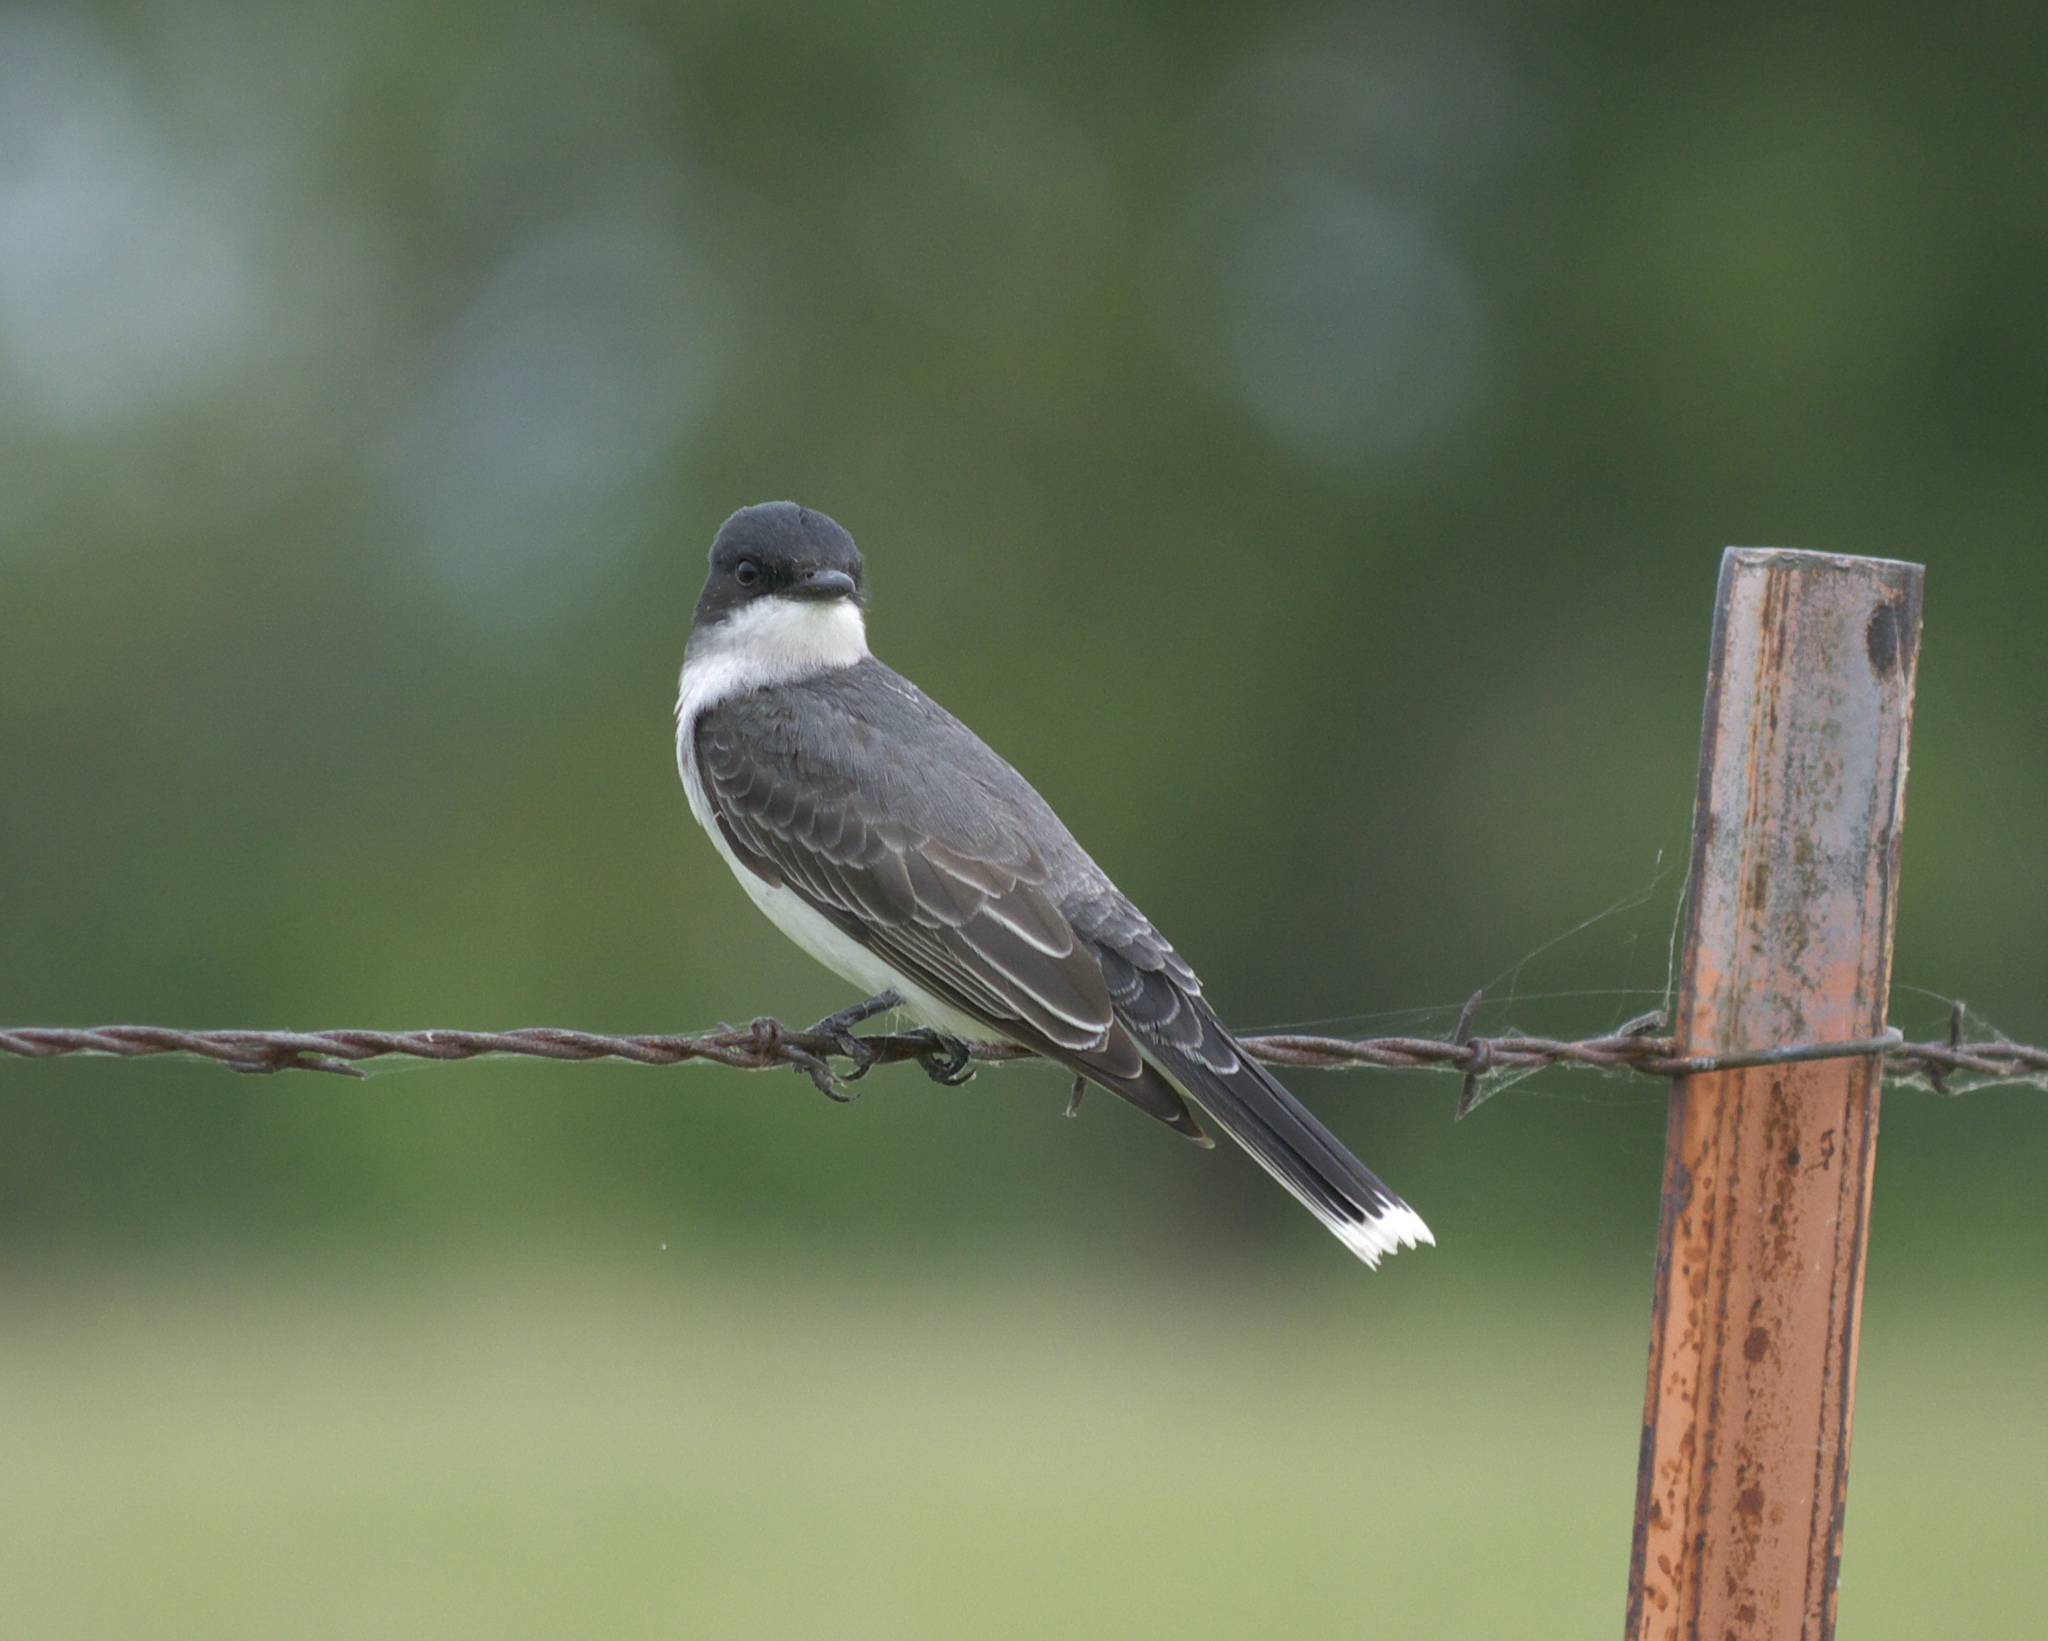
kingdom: Animalia
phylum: Chordata
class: Aves
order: Passeriformes
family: Tyrannidae
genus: Tyrannus
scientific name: Tyrannus tyrannus
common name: Eastern kingbird
